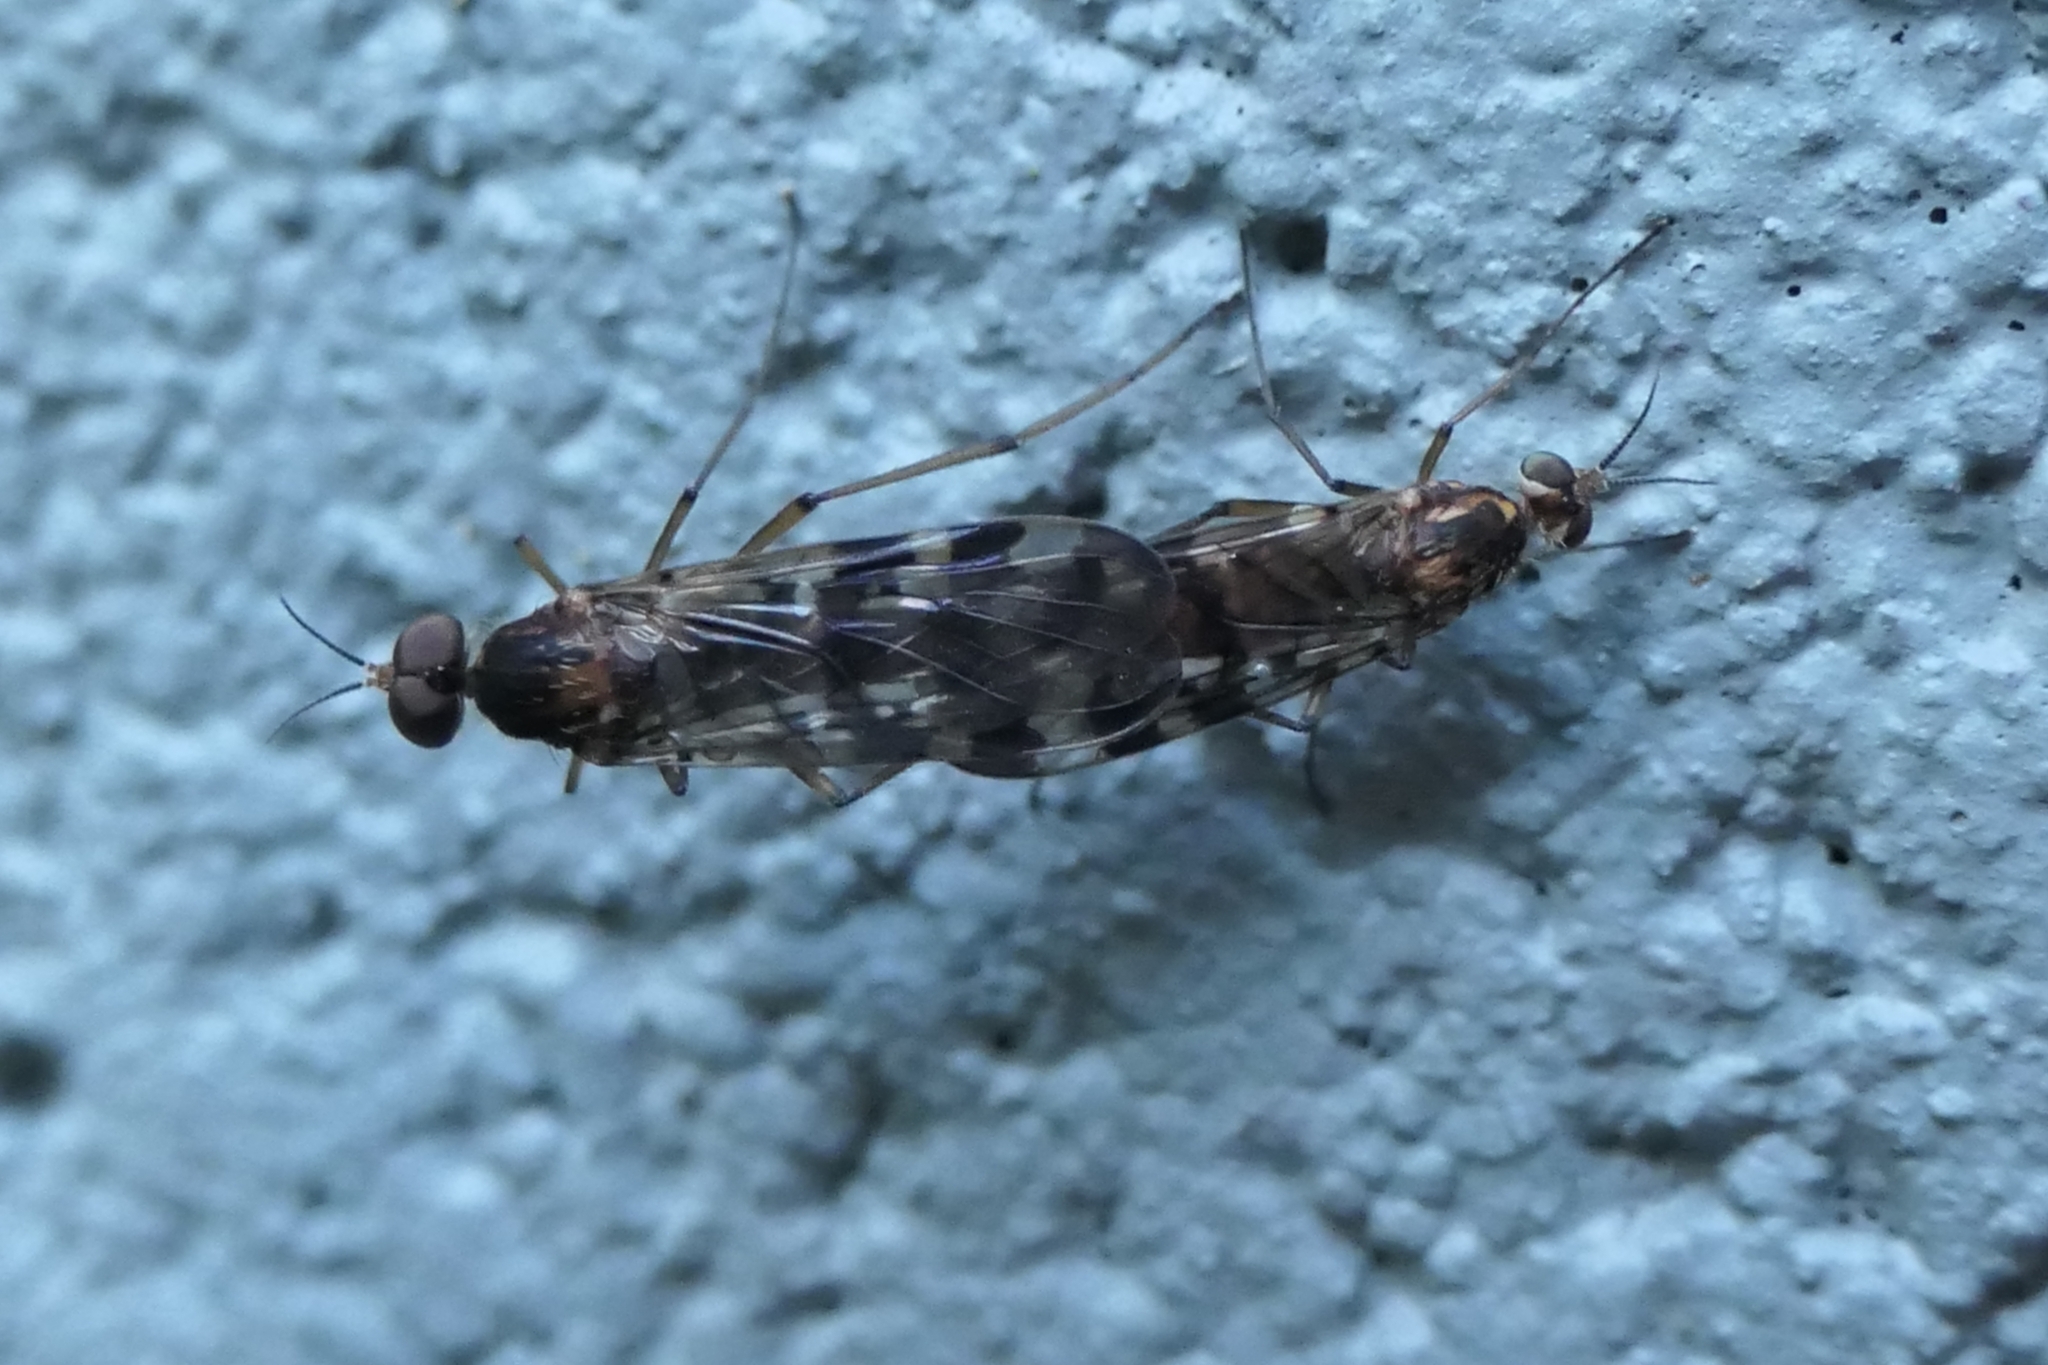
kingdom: Animalia
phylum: Arthropoda
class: Insecta
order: Diptera
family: Anisopodidae
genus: Sylvicola
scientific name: Sylvicola dubius
